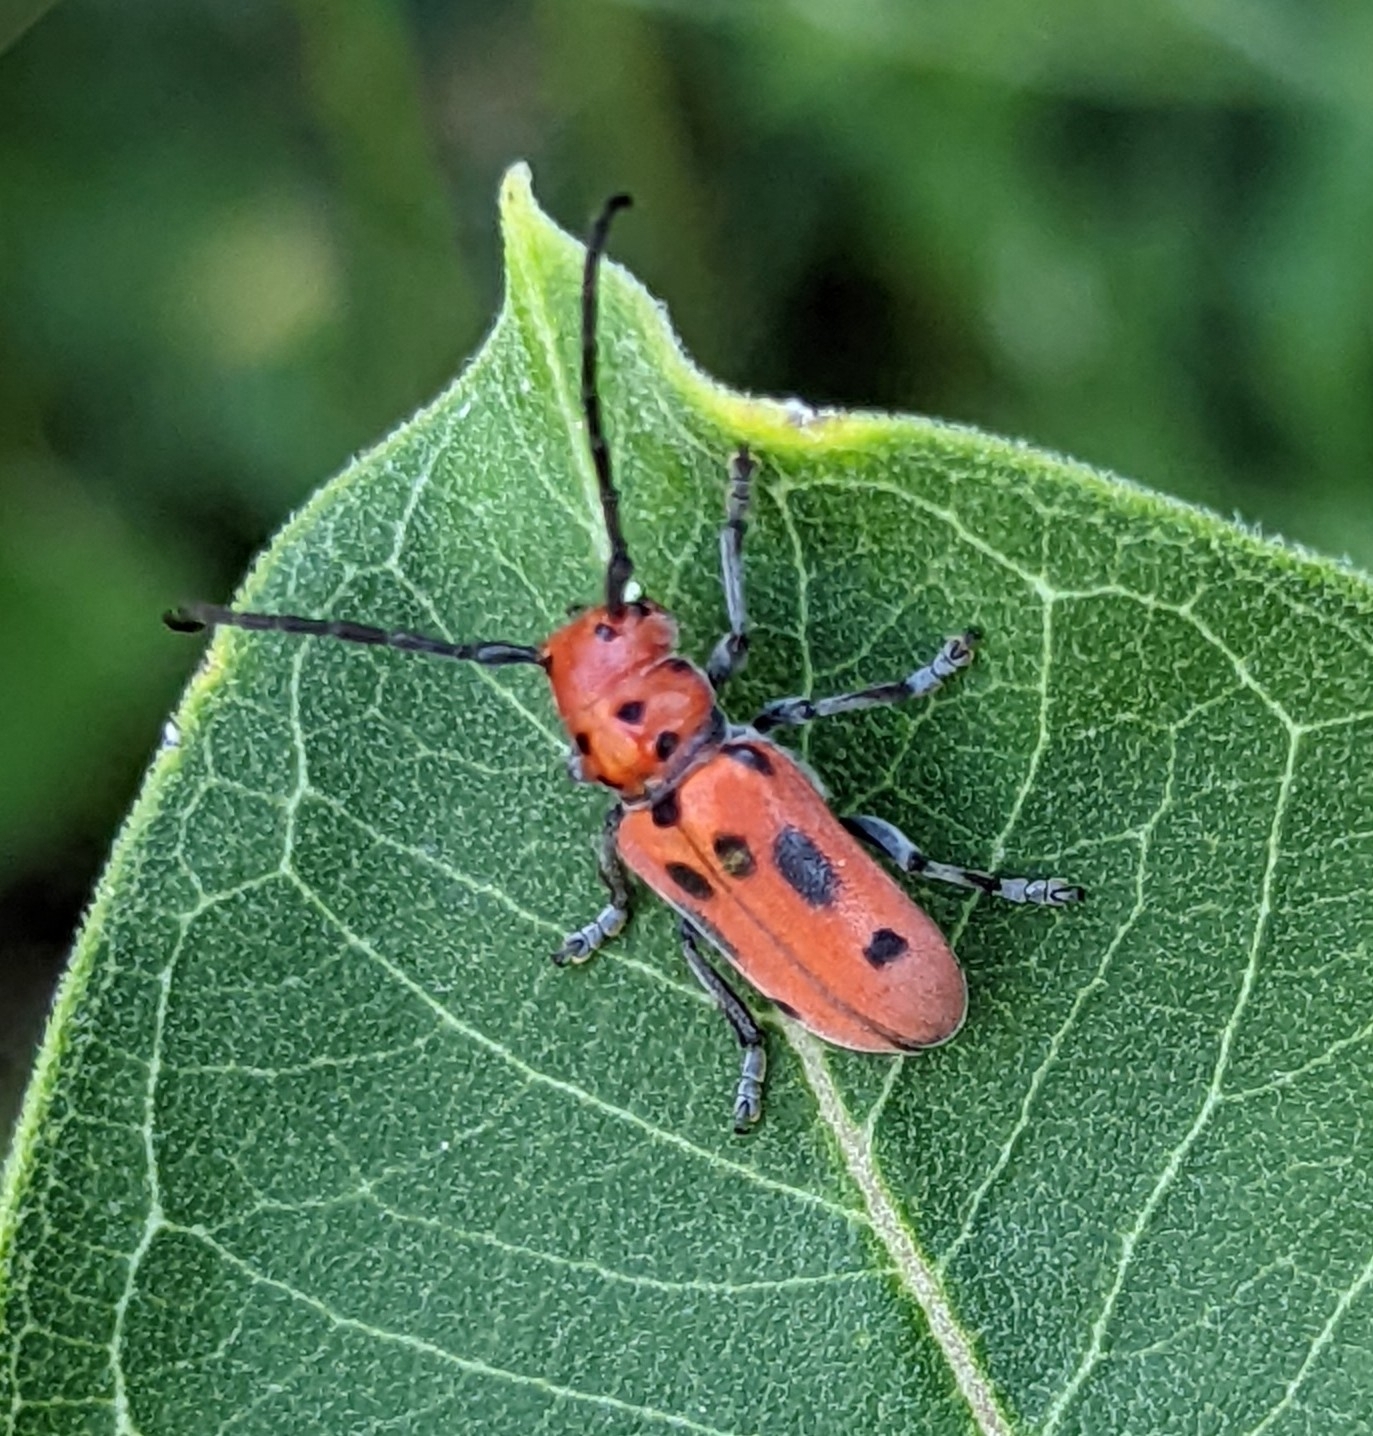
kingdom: Animalia
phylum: Arthropoda
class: Insecta
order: Coleoptera
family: Cerambycidae
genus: Tetraopes
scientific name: Tetraopes tetrophthalmus
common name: Red milkweed beetle
